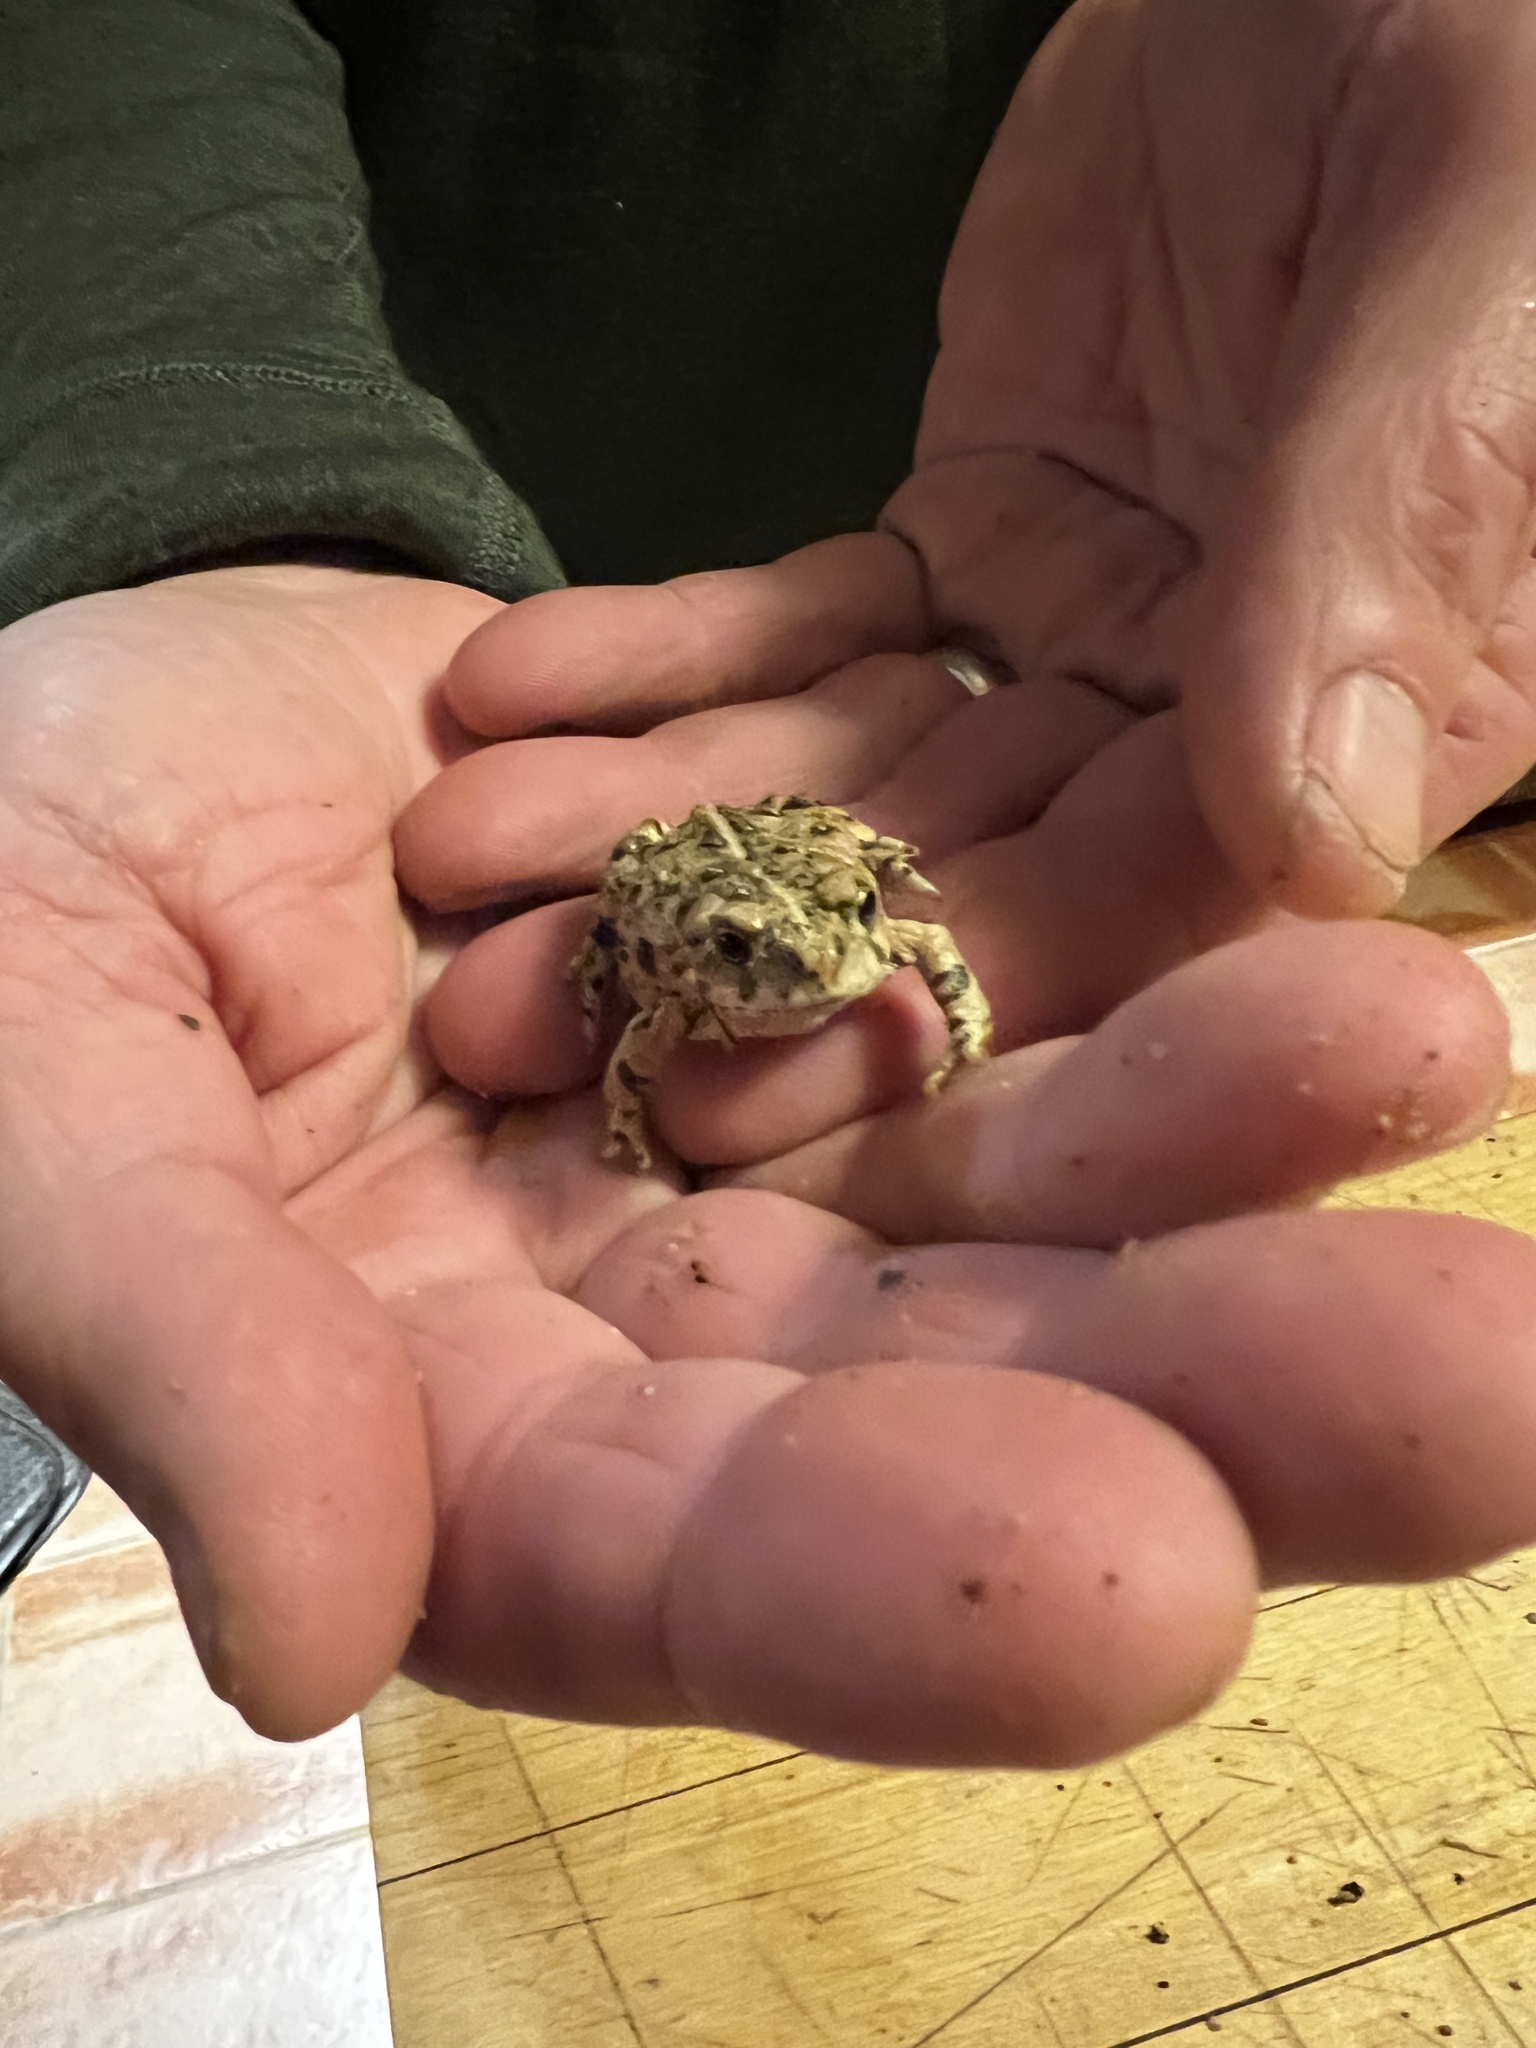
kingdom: Animalia
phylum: Chordata
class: Amphibia
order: Anura
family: Bufonidae
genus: Anaxyrus
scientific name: Anaxyrus boreas
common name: Western toad
